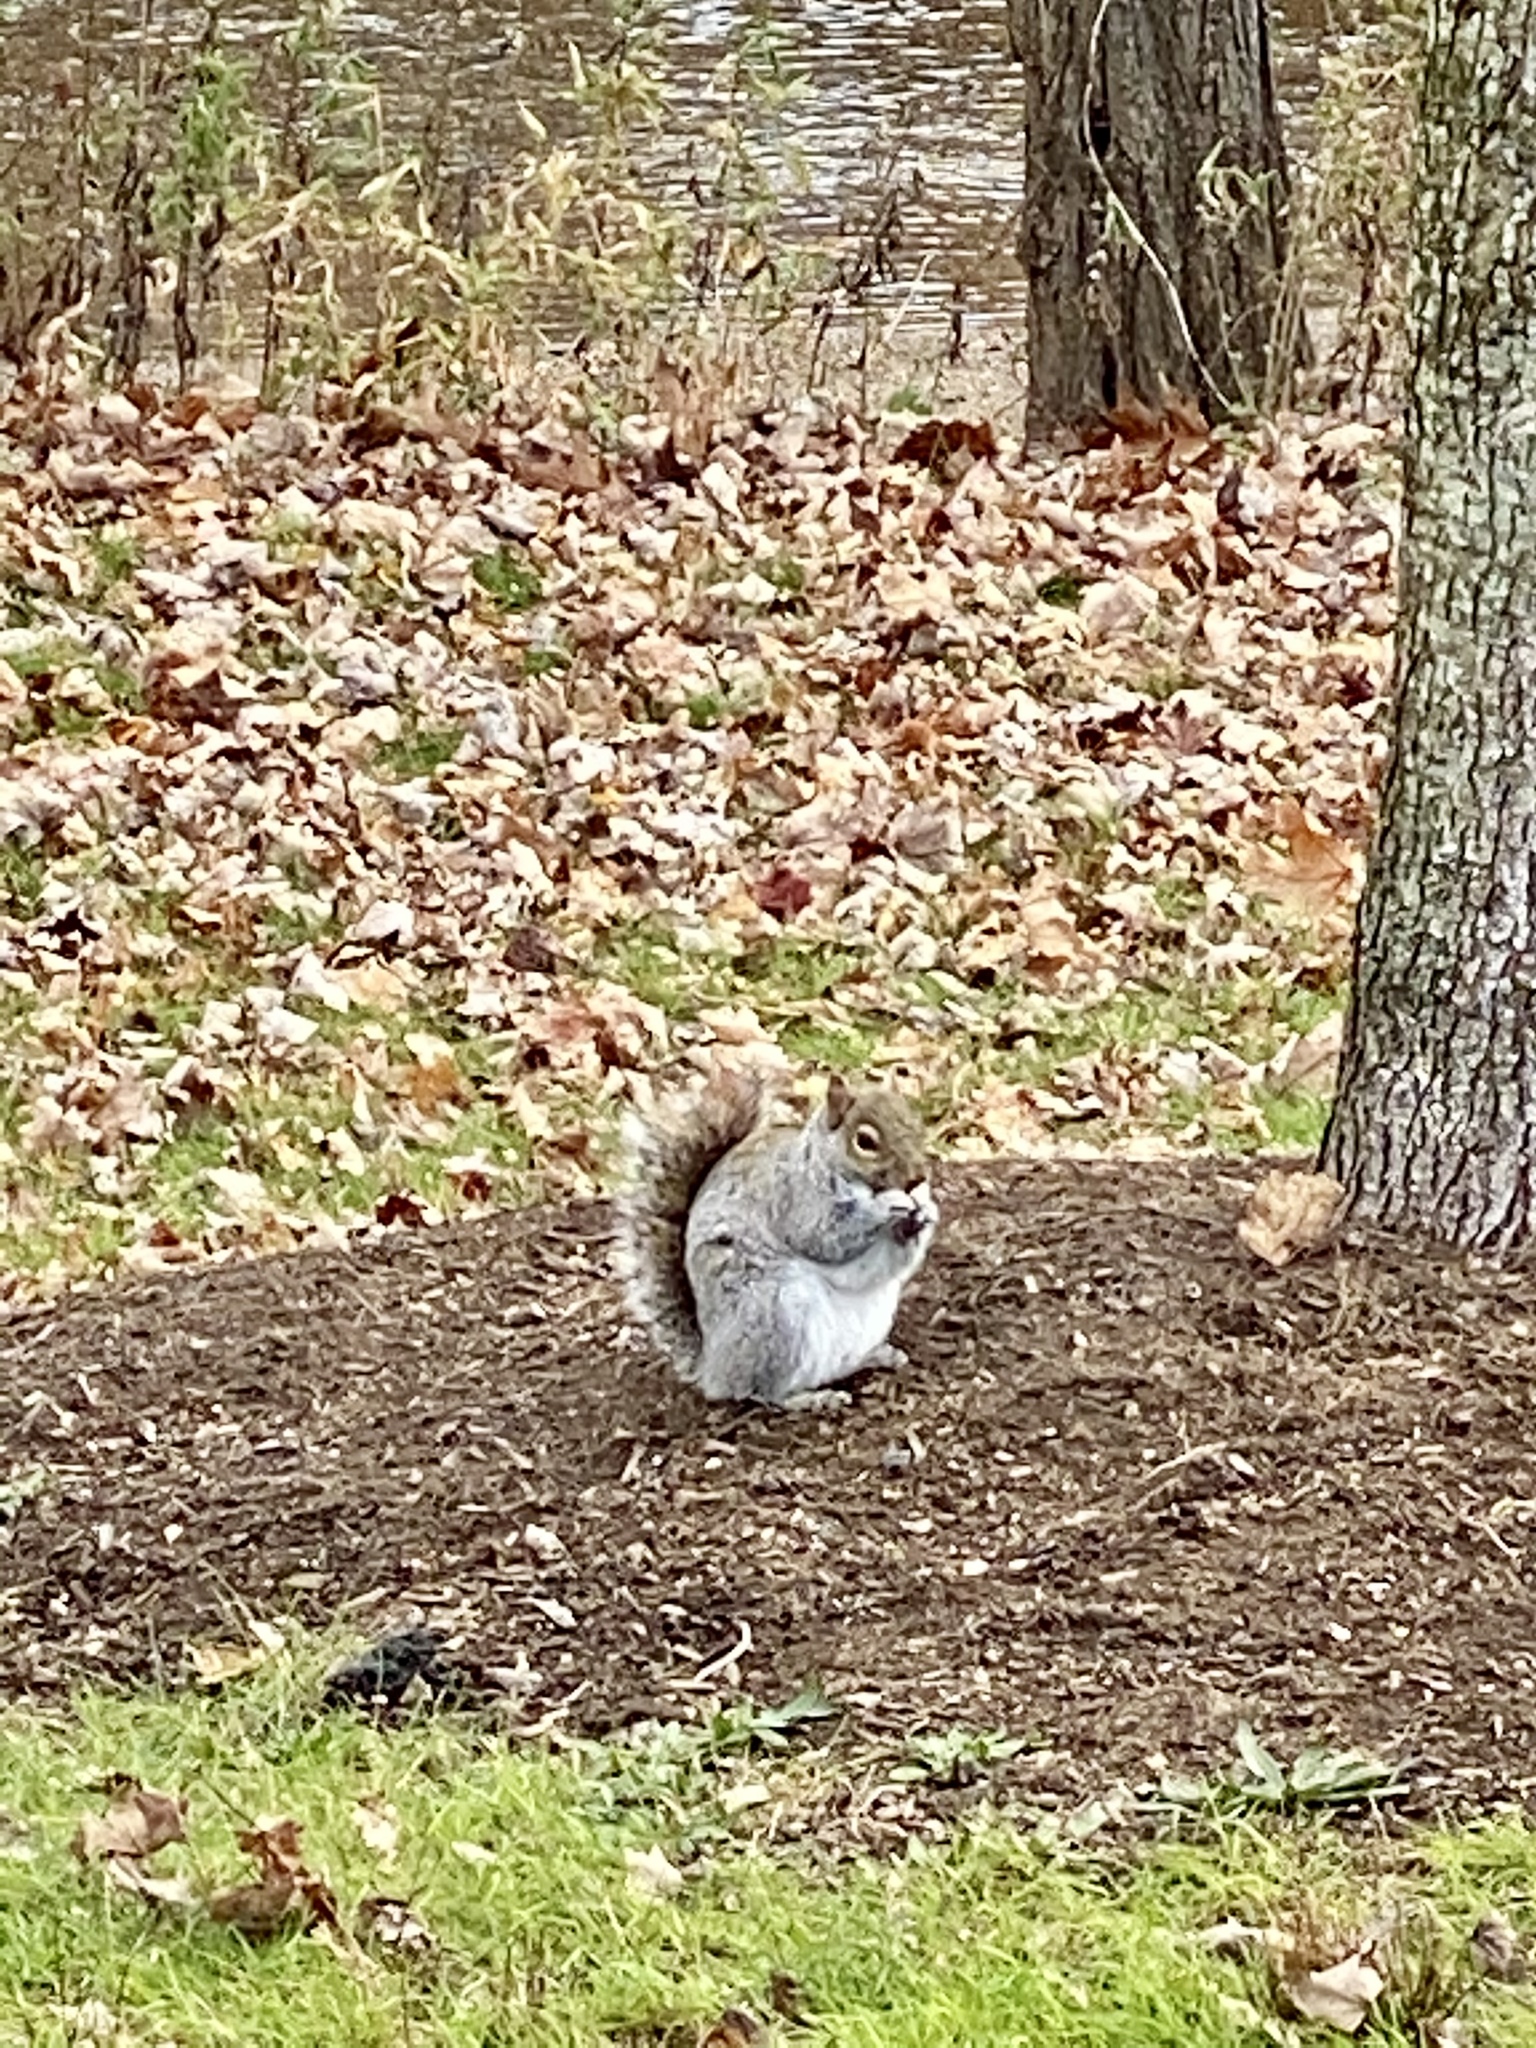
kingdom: Animalia
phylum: Chordata
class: Mammalia
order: Rodentia
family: Sciuridae
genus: Sciurus
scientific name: Sciurus carolinensis
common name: Eastern gray squirrel
